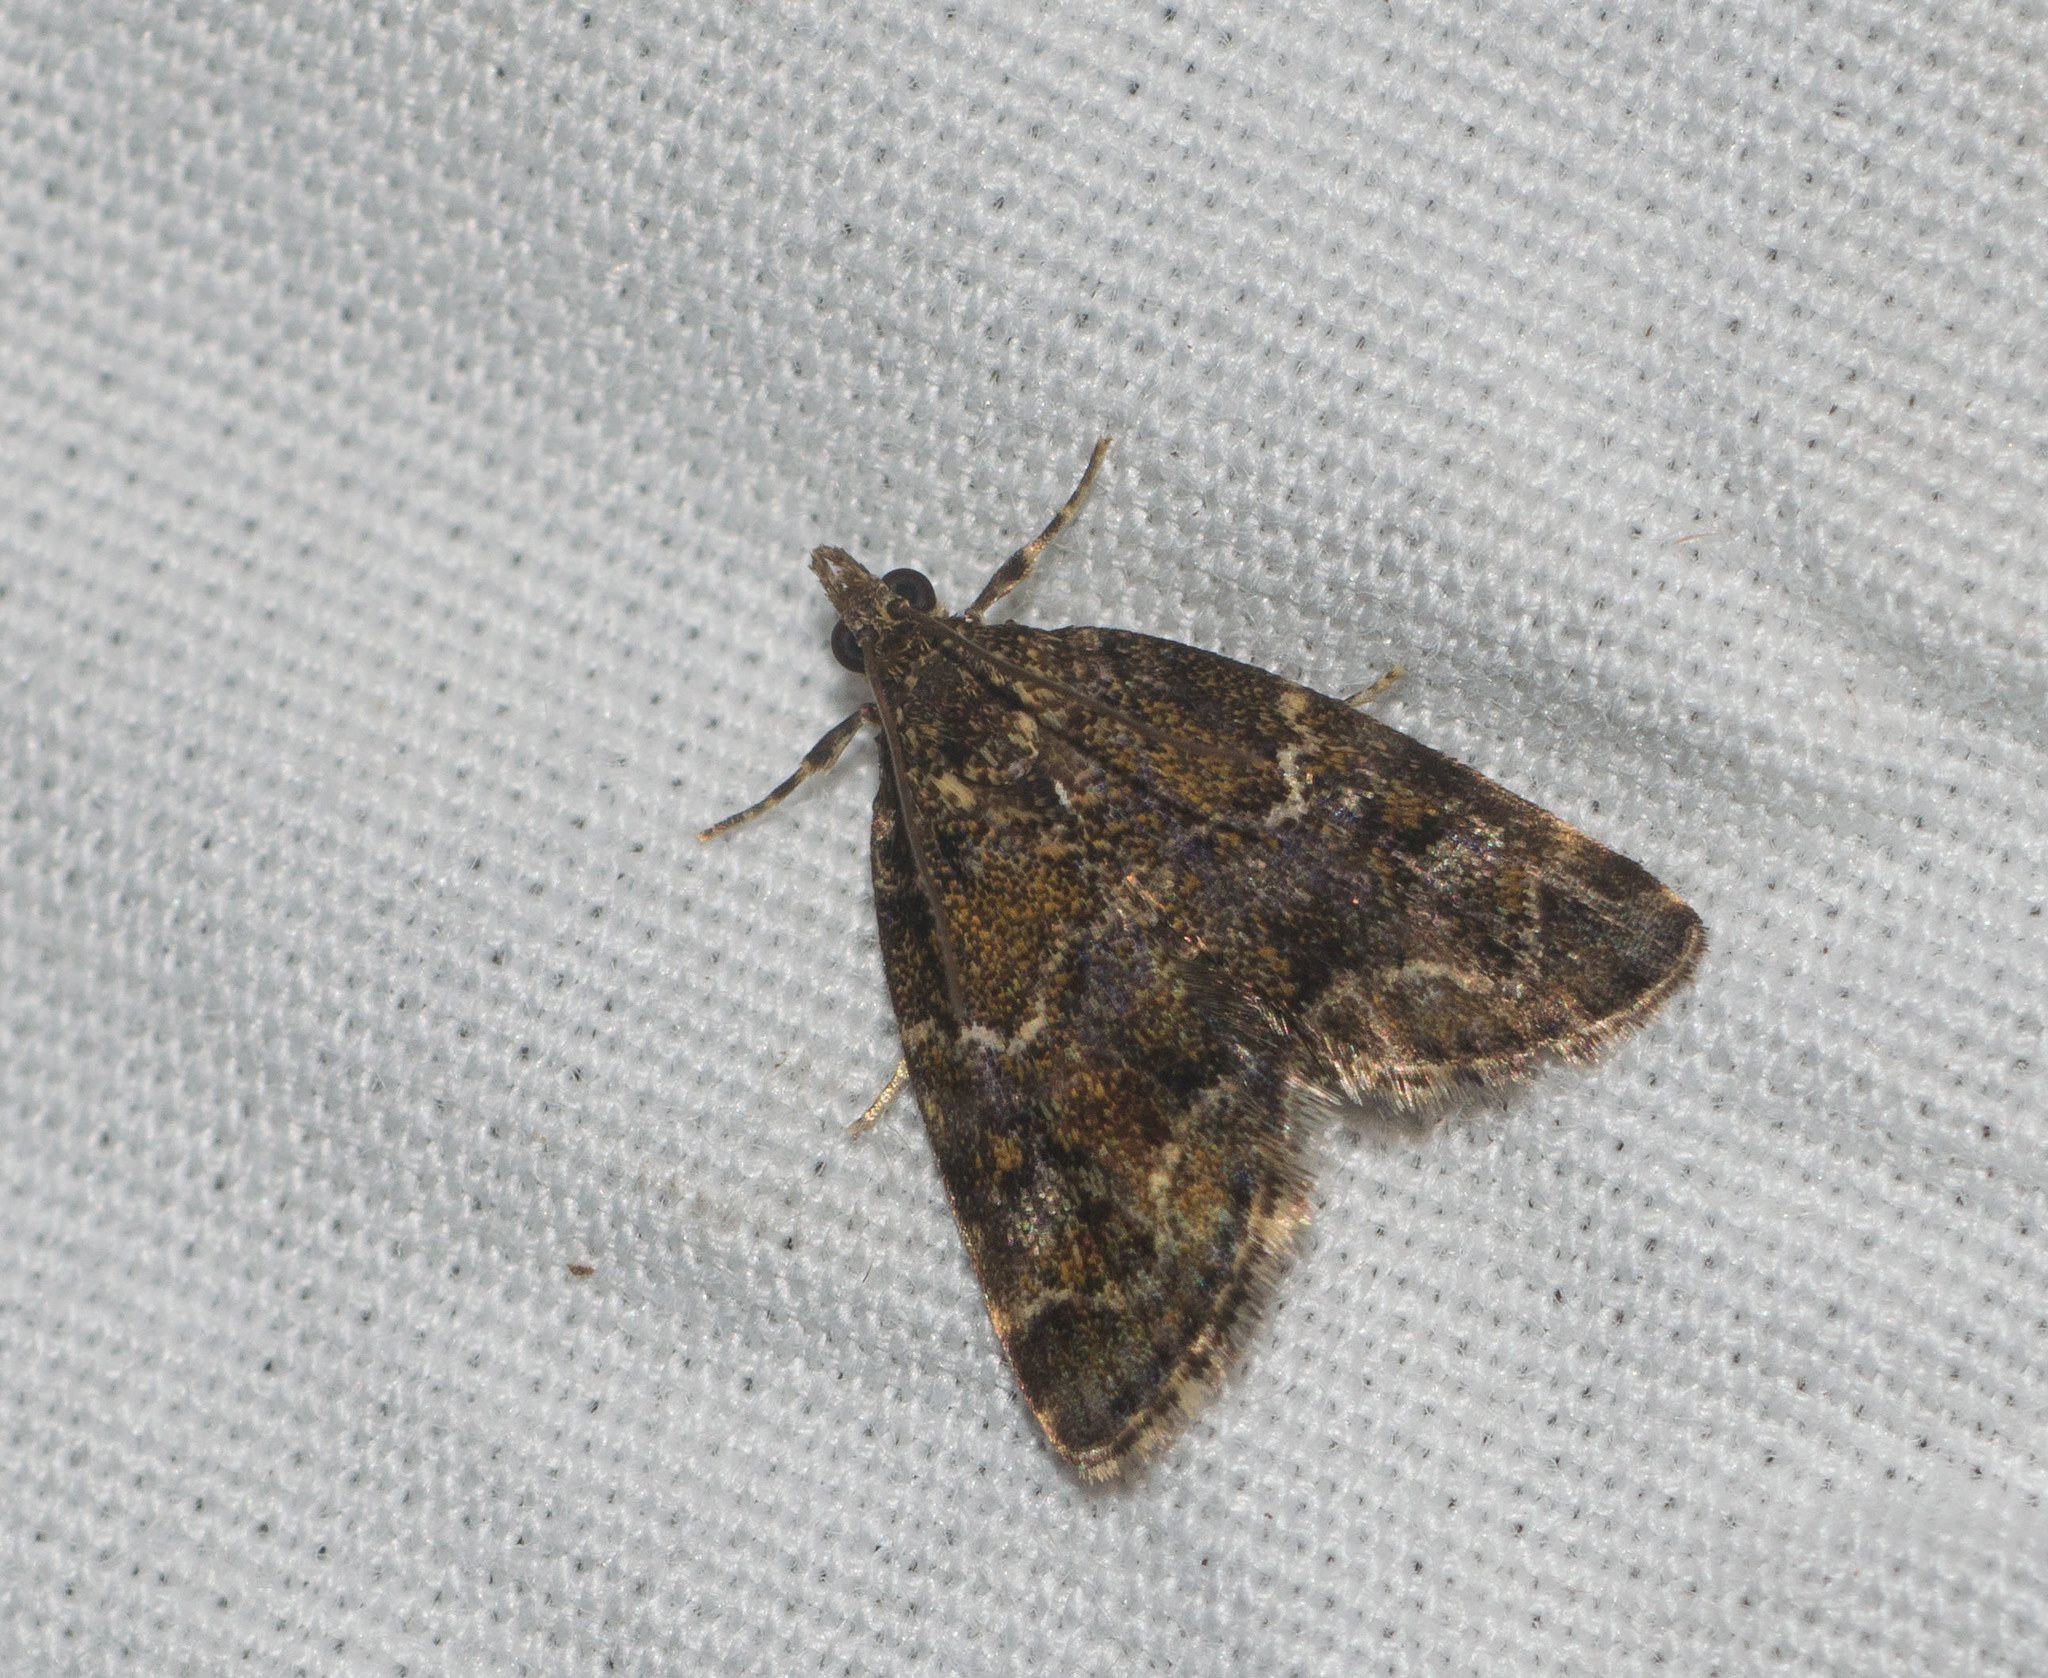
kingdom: Animalia
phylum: Arthropoda
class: Insecta
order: Lepidoptera
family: Crambidae
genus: Mestolobes
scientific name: Mestolobes abnormis
